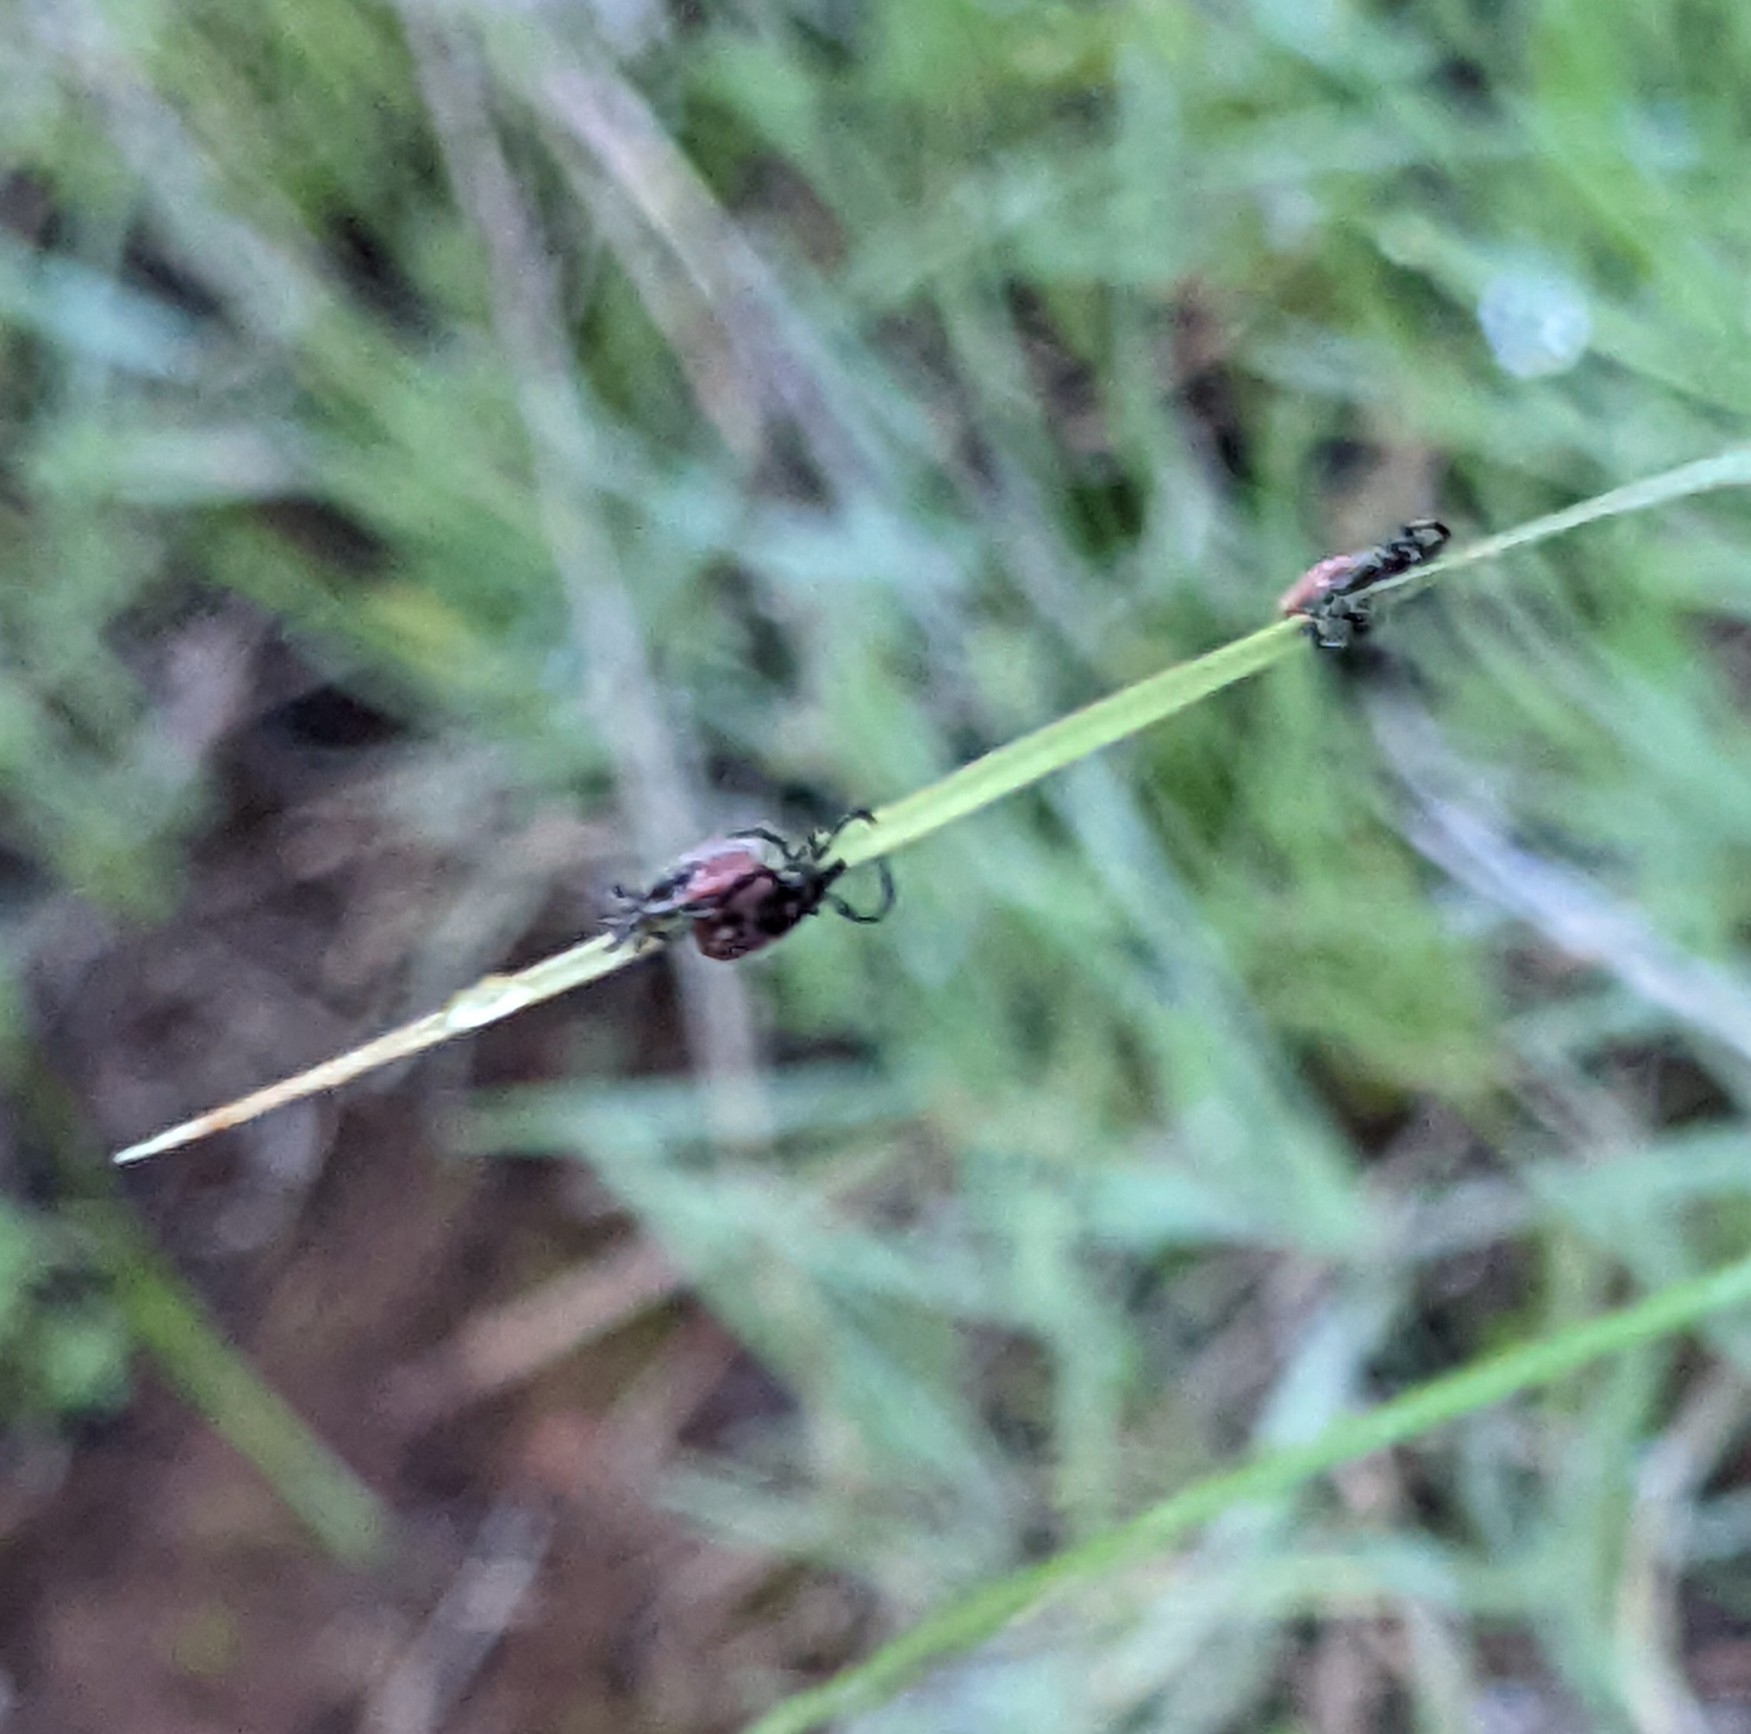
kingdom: Animalia
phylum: Arthropoda
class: Arachnida
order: Ixodida
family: Ixodidae
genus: Ixodes
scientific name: Ixodes pacificus
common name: California black-legged tick
